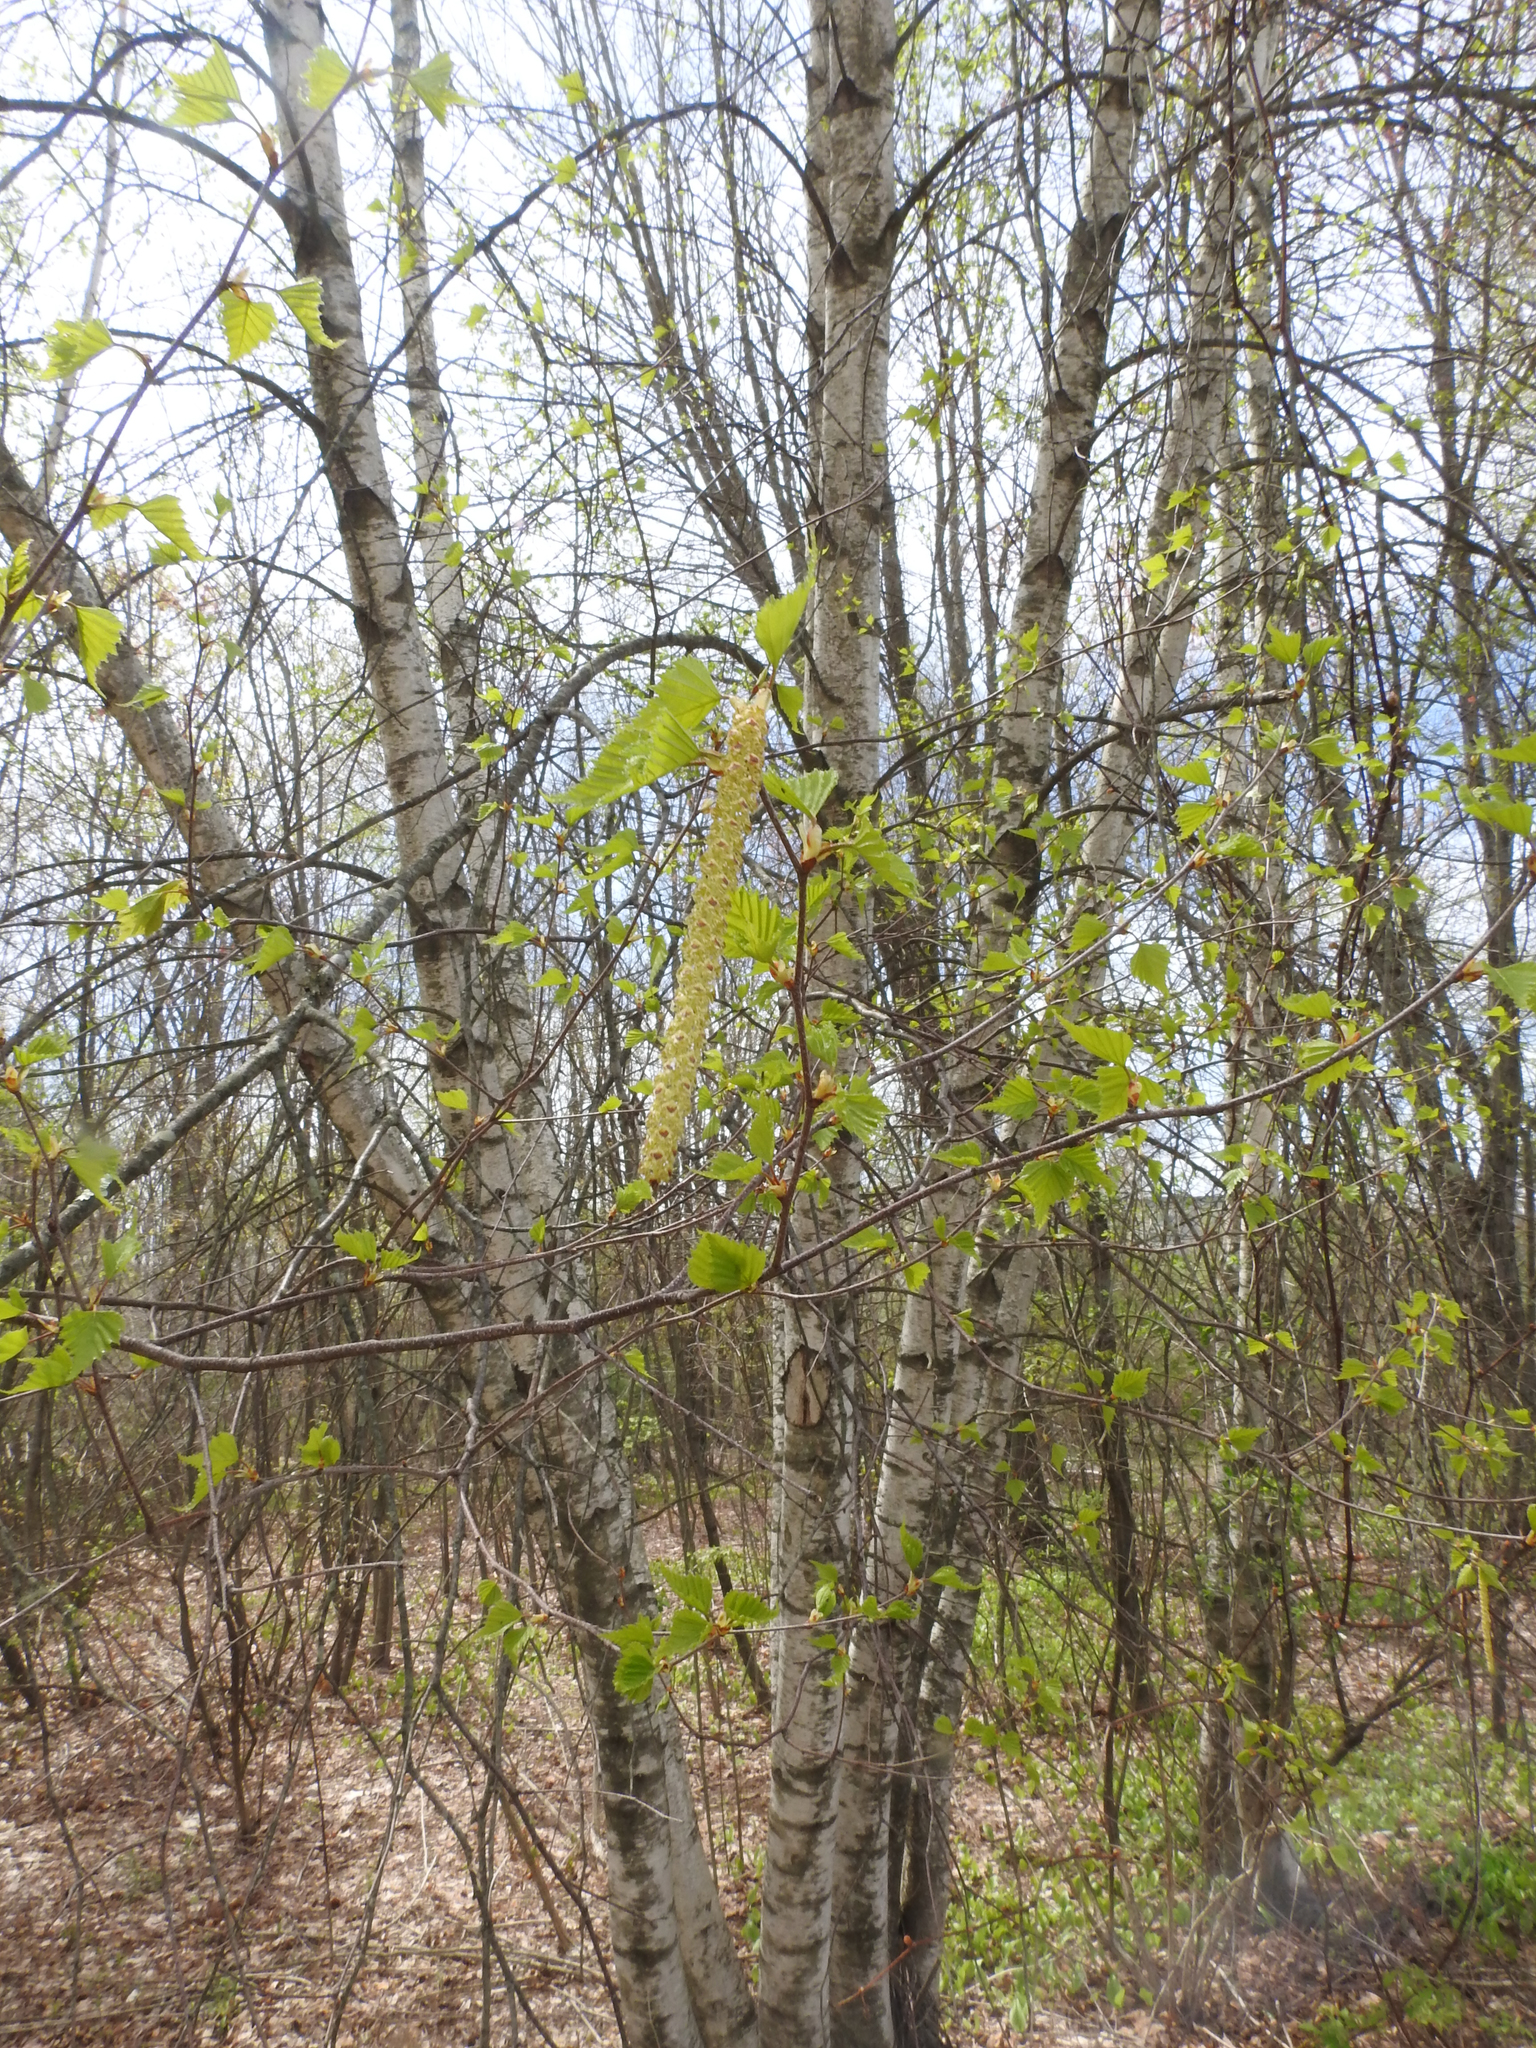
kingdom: Plantae
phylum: Tracheophyta
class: Magnoliopsida
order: Fagales
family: Betulaceae
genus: Betula
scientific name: Betula populifolia
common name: Fire birch
